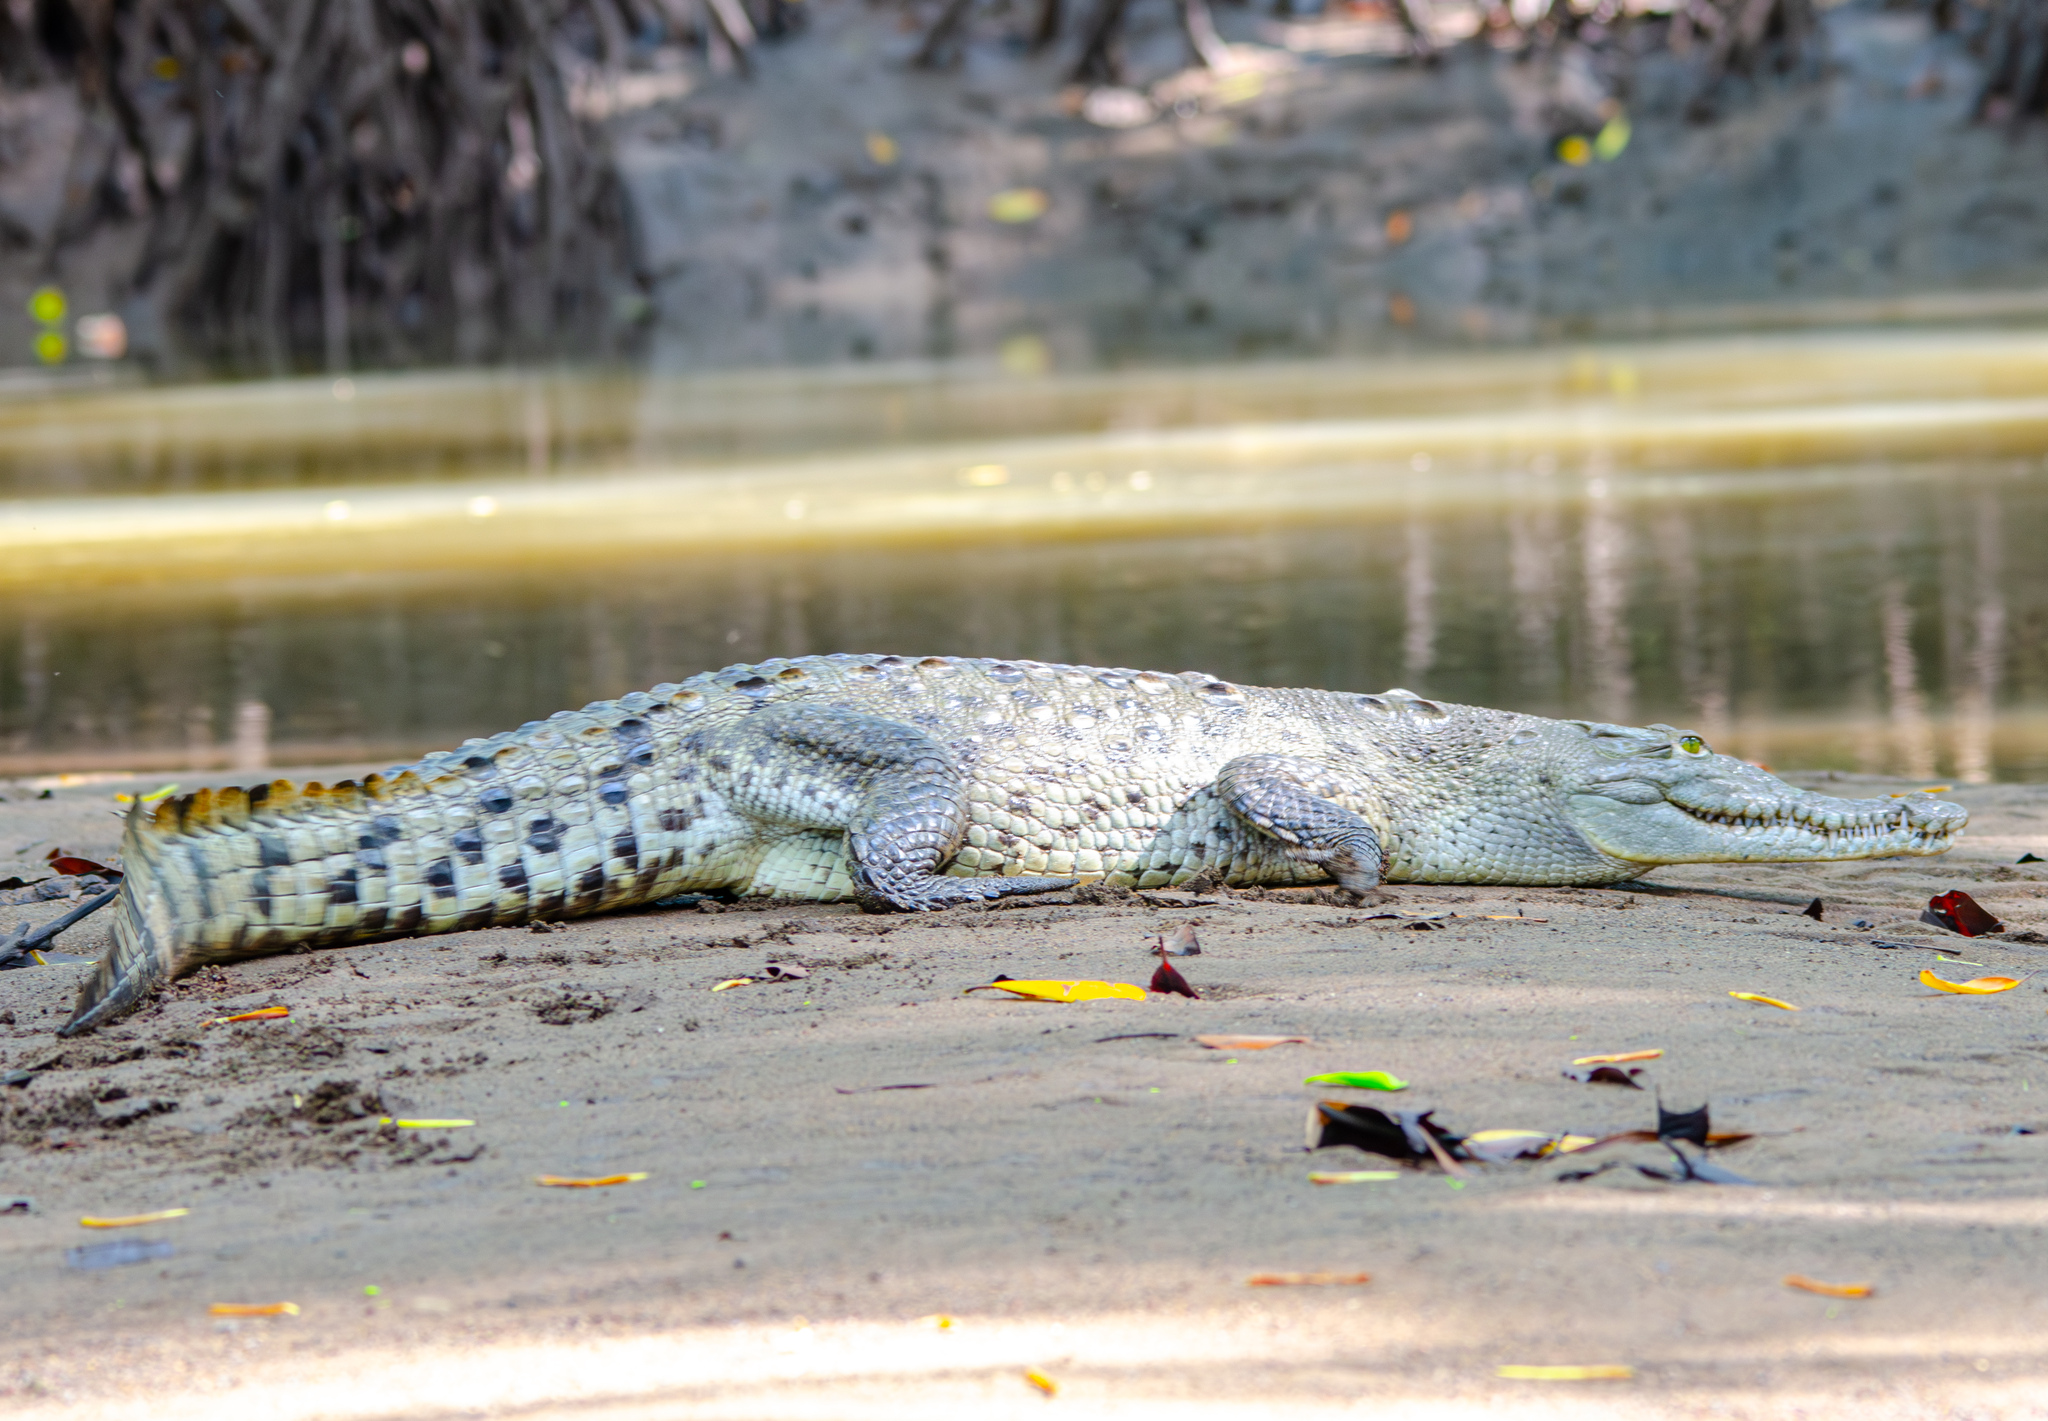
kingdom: Animalia
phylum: Chordata
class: Crocodylia
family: Crocodylidae
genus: Crocodylus
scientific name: Crocodylus acutus
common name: American crocodile
